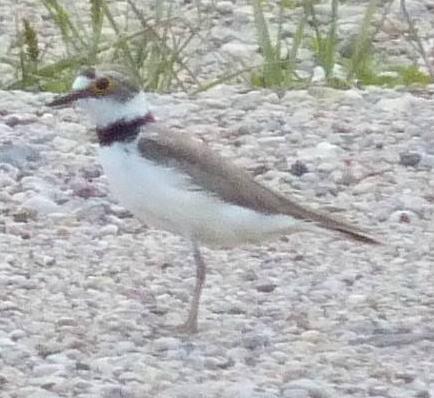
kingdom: Animalia
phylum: Chordata
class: Aves
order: Charadriiformes
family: Charadriidae
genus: Charadrius
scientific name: Charadrius dubius
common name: Little ringed plover
